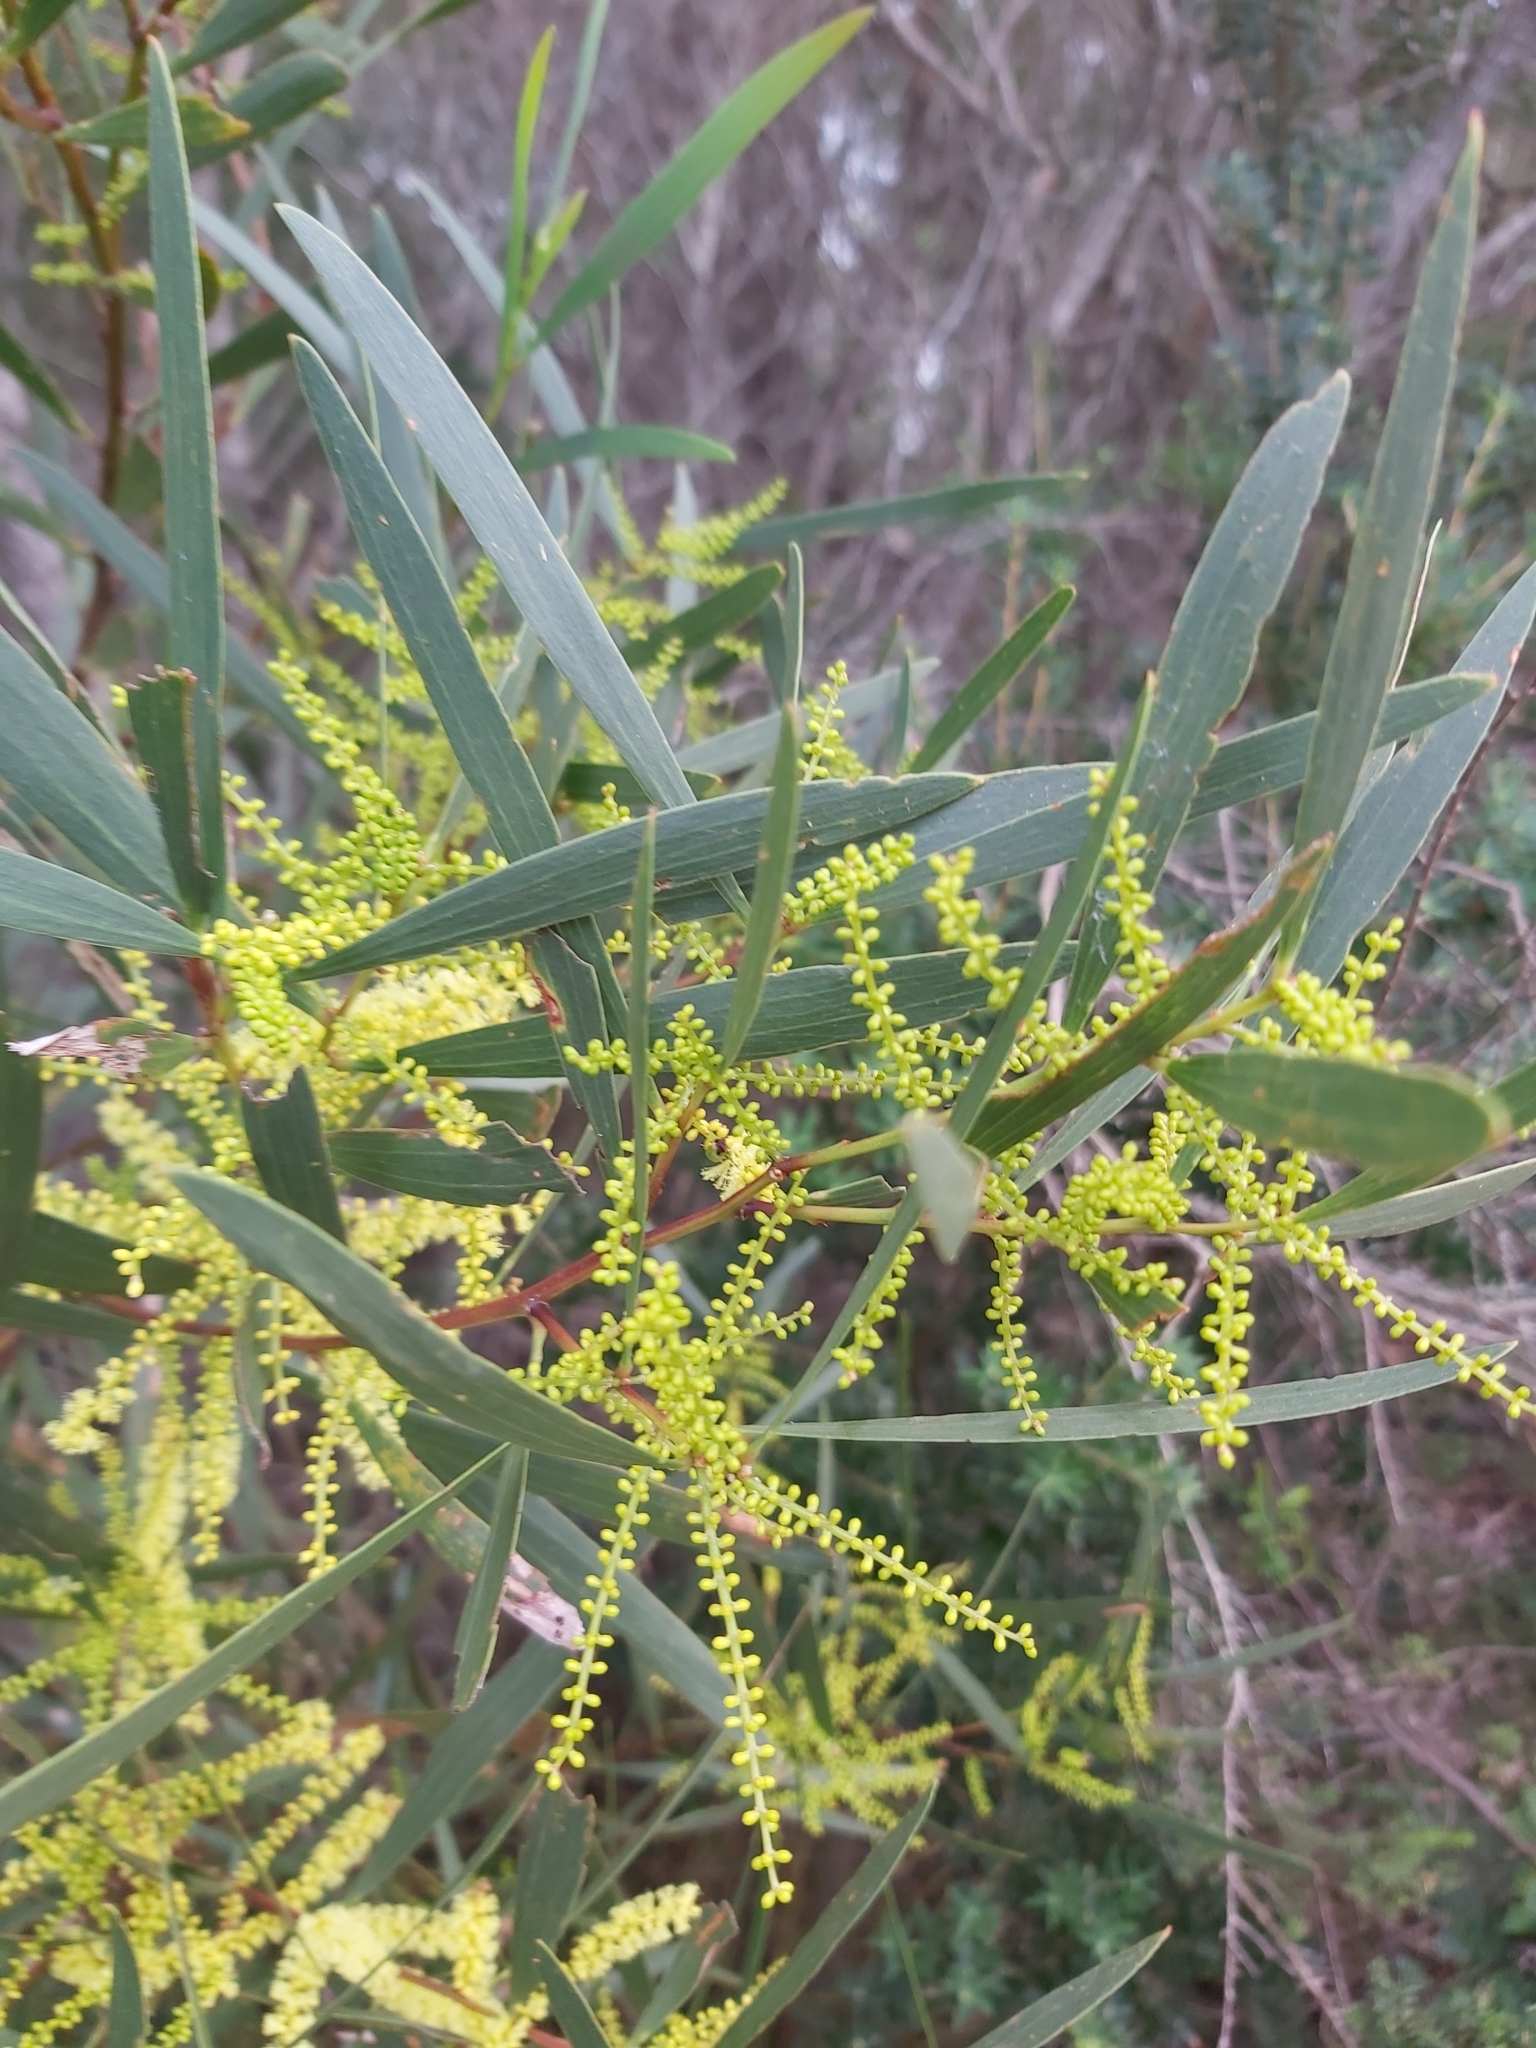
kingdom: Plantae
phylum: Tracheophyta
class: Magnoliopsida
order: Fabales
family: Fabaceae
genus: Acacia
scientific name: Acacia longifolia
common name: Sydney golden wattle
